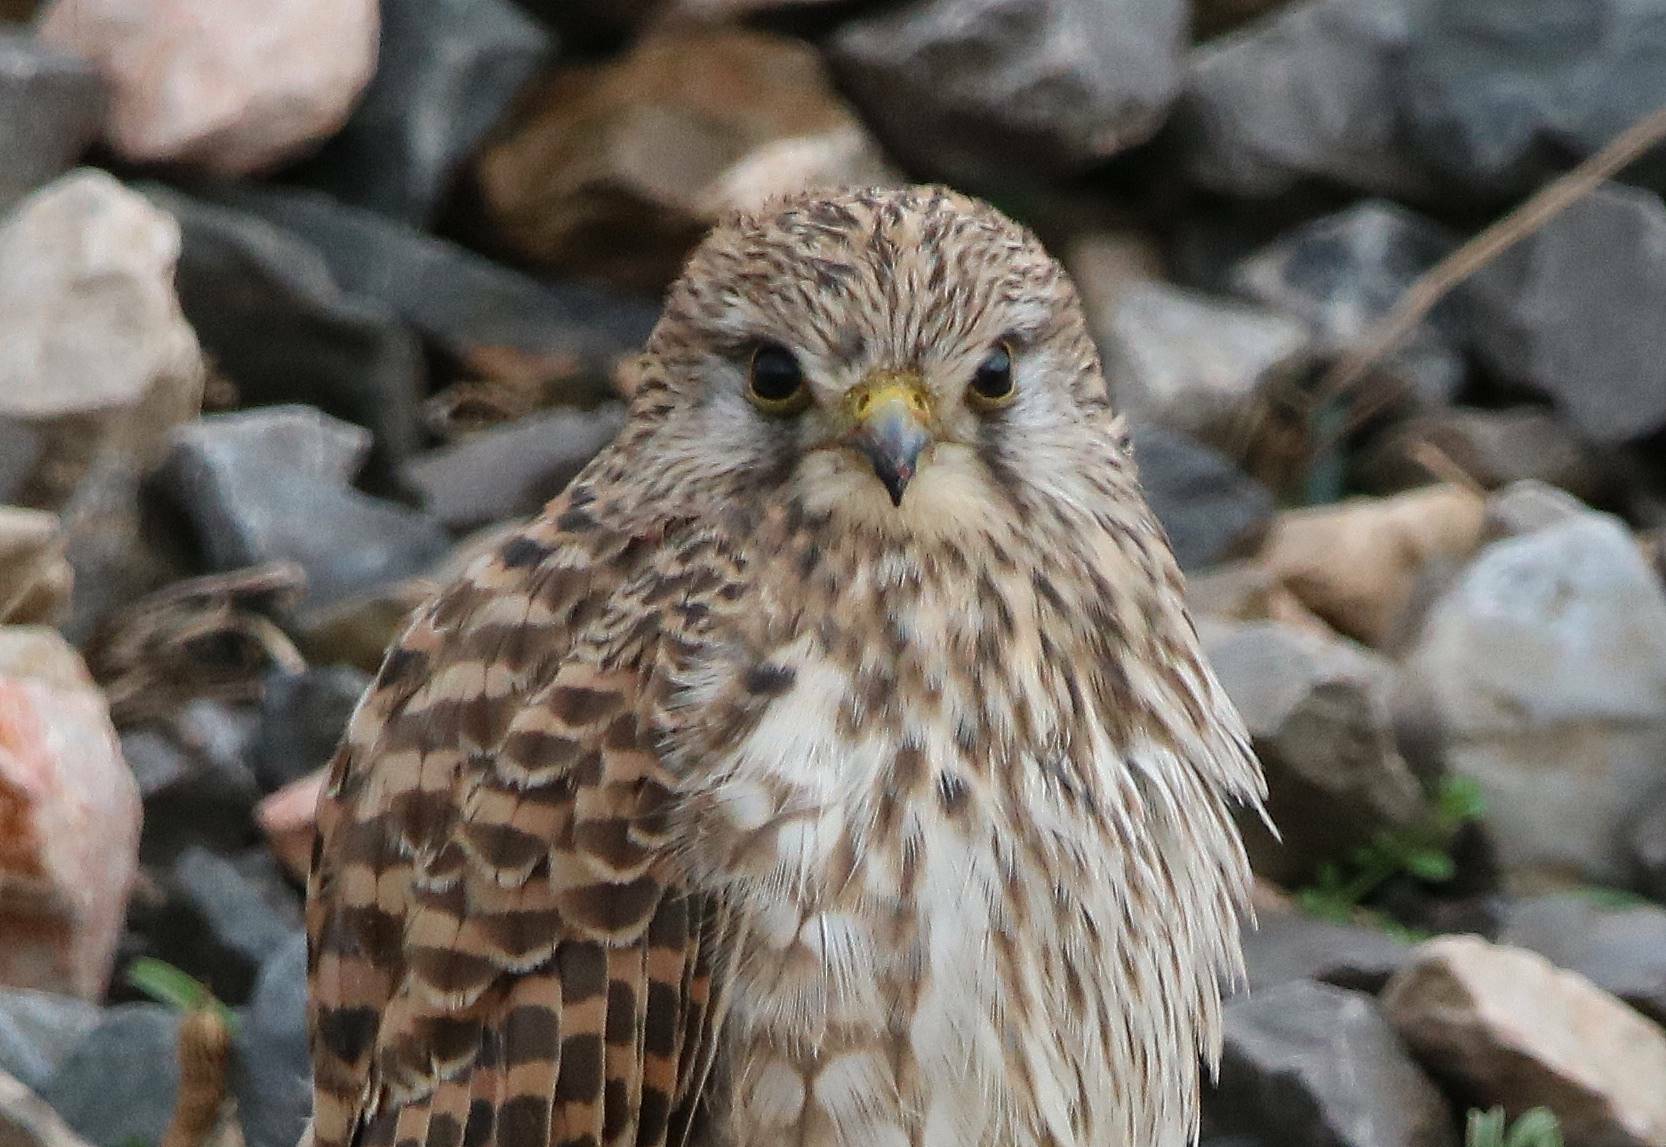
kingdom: Animalia
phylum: Chordata
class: Aves
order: Falconiformes
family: Falconidae
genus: Falco
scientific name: Falco tinnunculus
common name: Common kestrel
